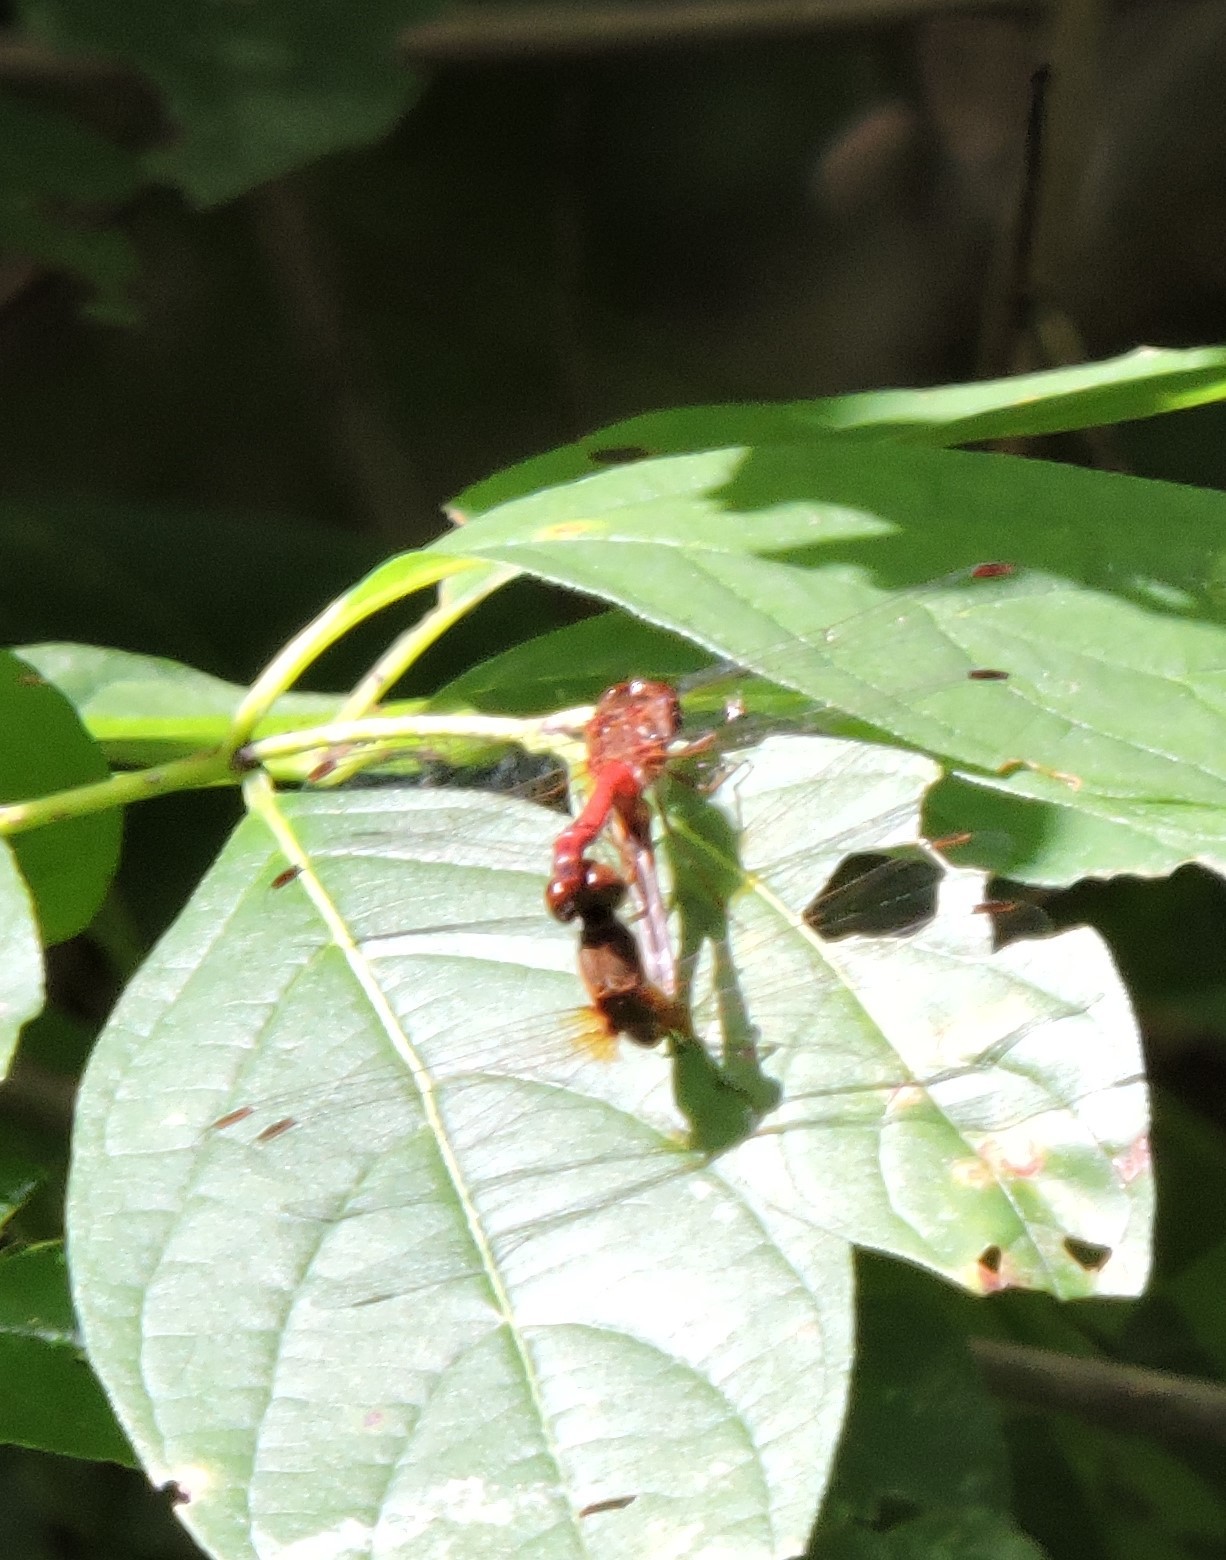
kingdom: Animalia
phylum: Arthropoda
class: Insecta
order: Odonata
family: Libellulidae
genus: Sympetrum
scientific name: Sympetrum vicinum
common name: Autumn meadowhawk
